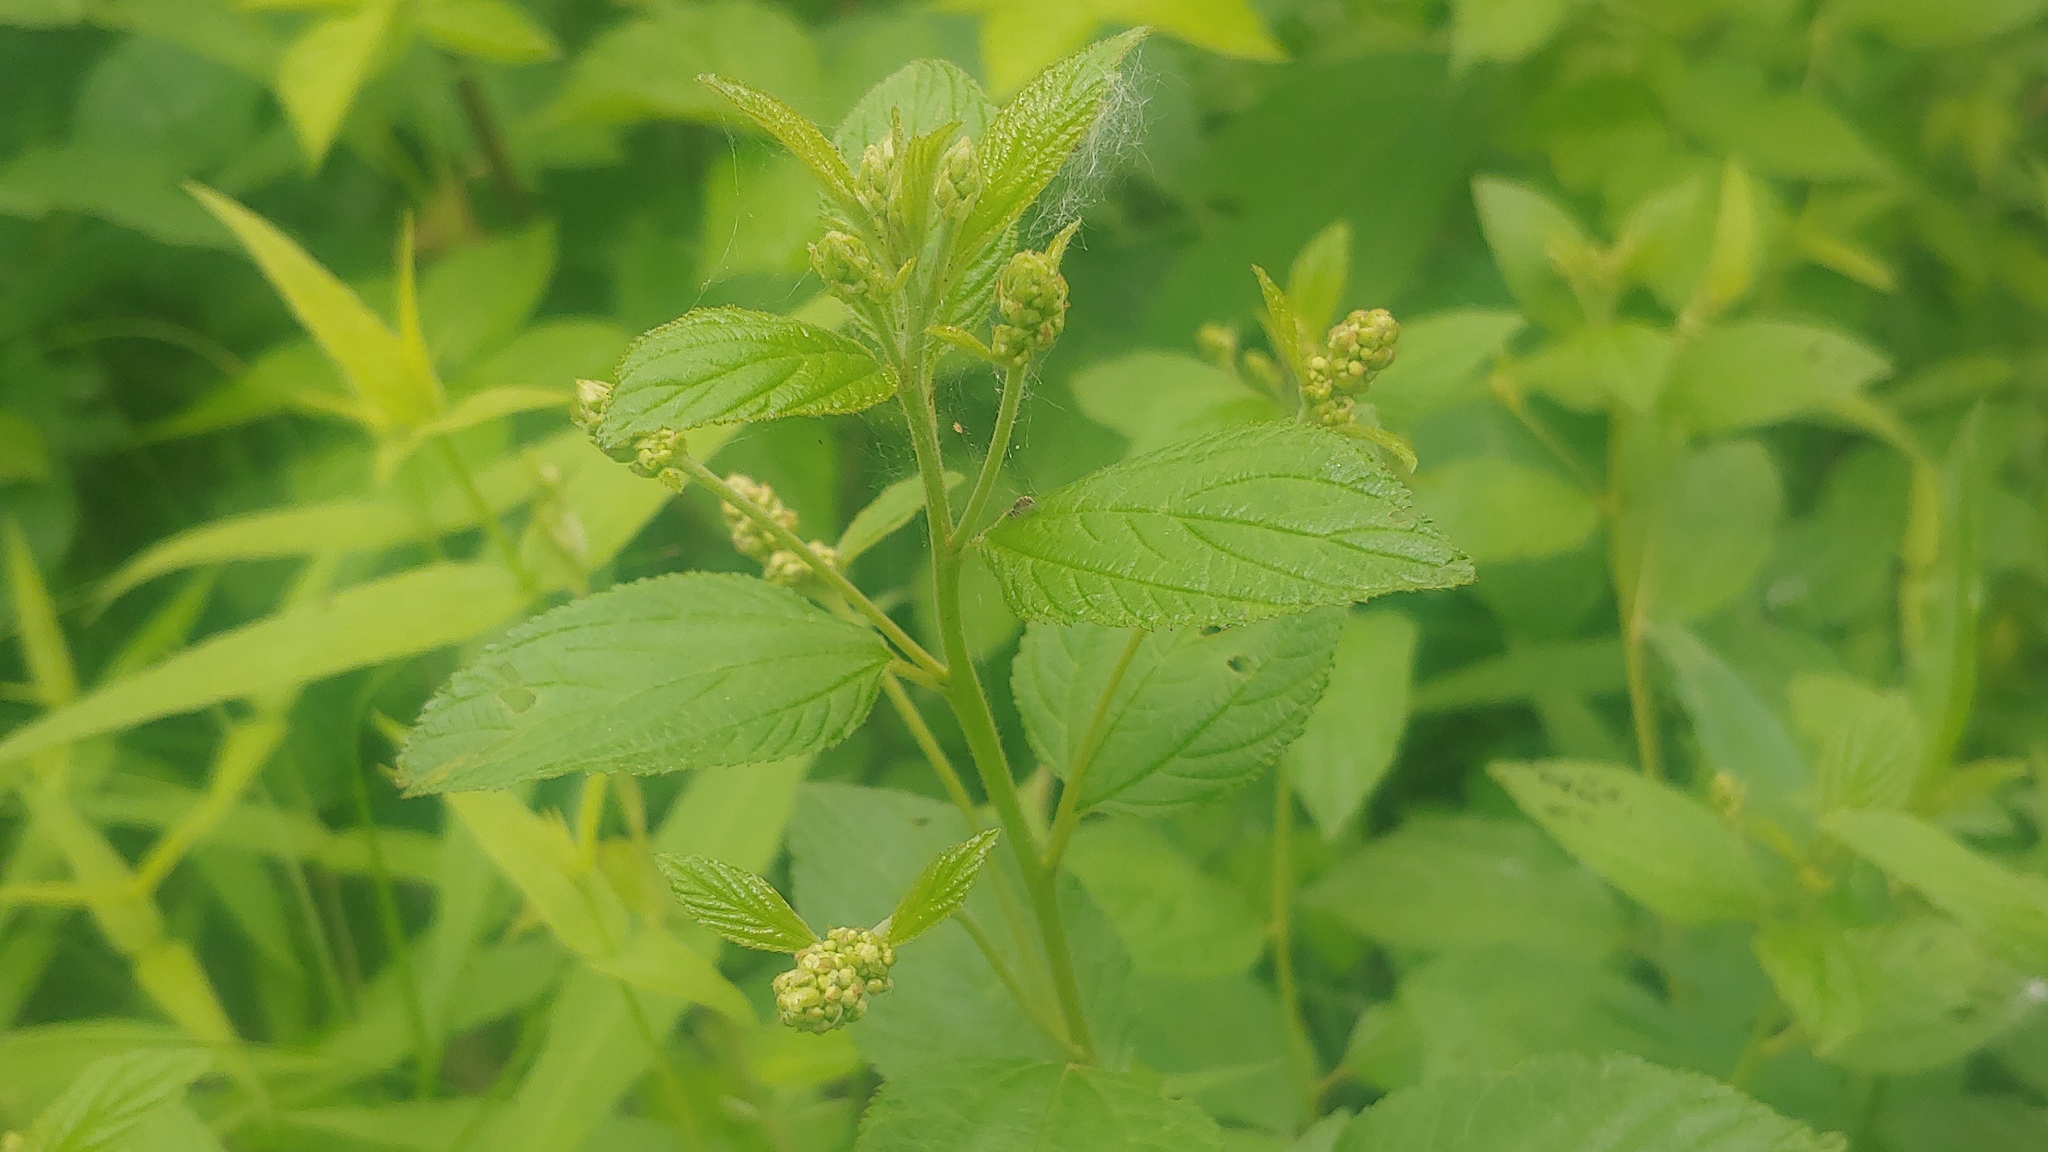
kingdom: Plantae
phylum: Tracheophyta
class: Magnoliopsida
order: Rosales
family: Rhamnaceae
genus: Ceanothus
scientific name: Ceanothus americanus
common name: Redroot
